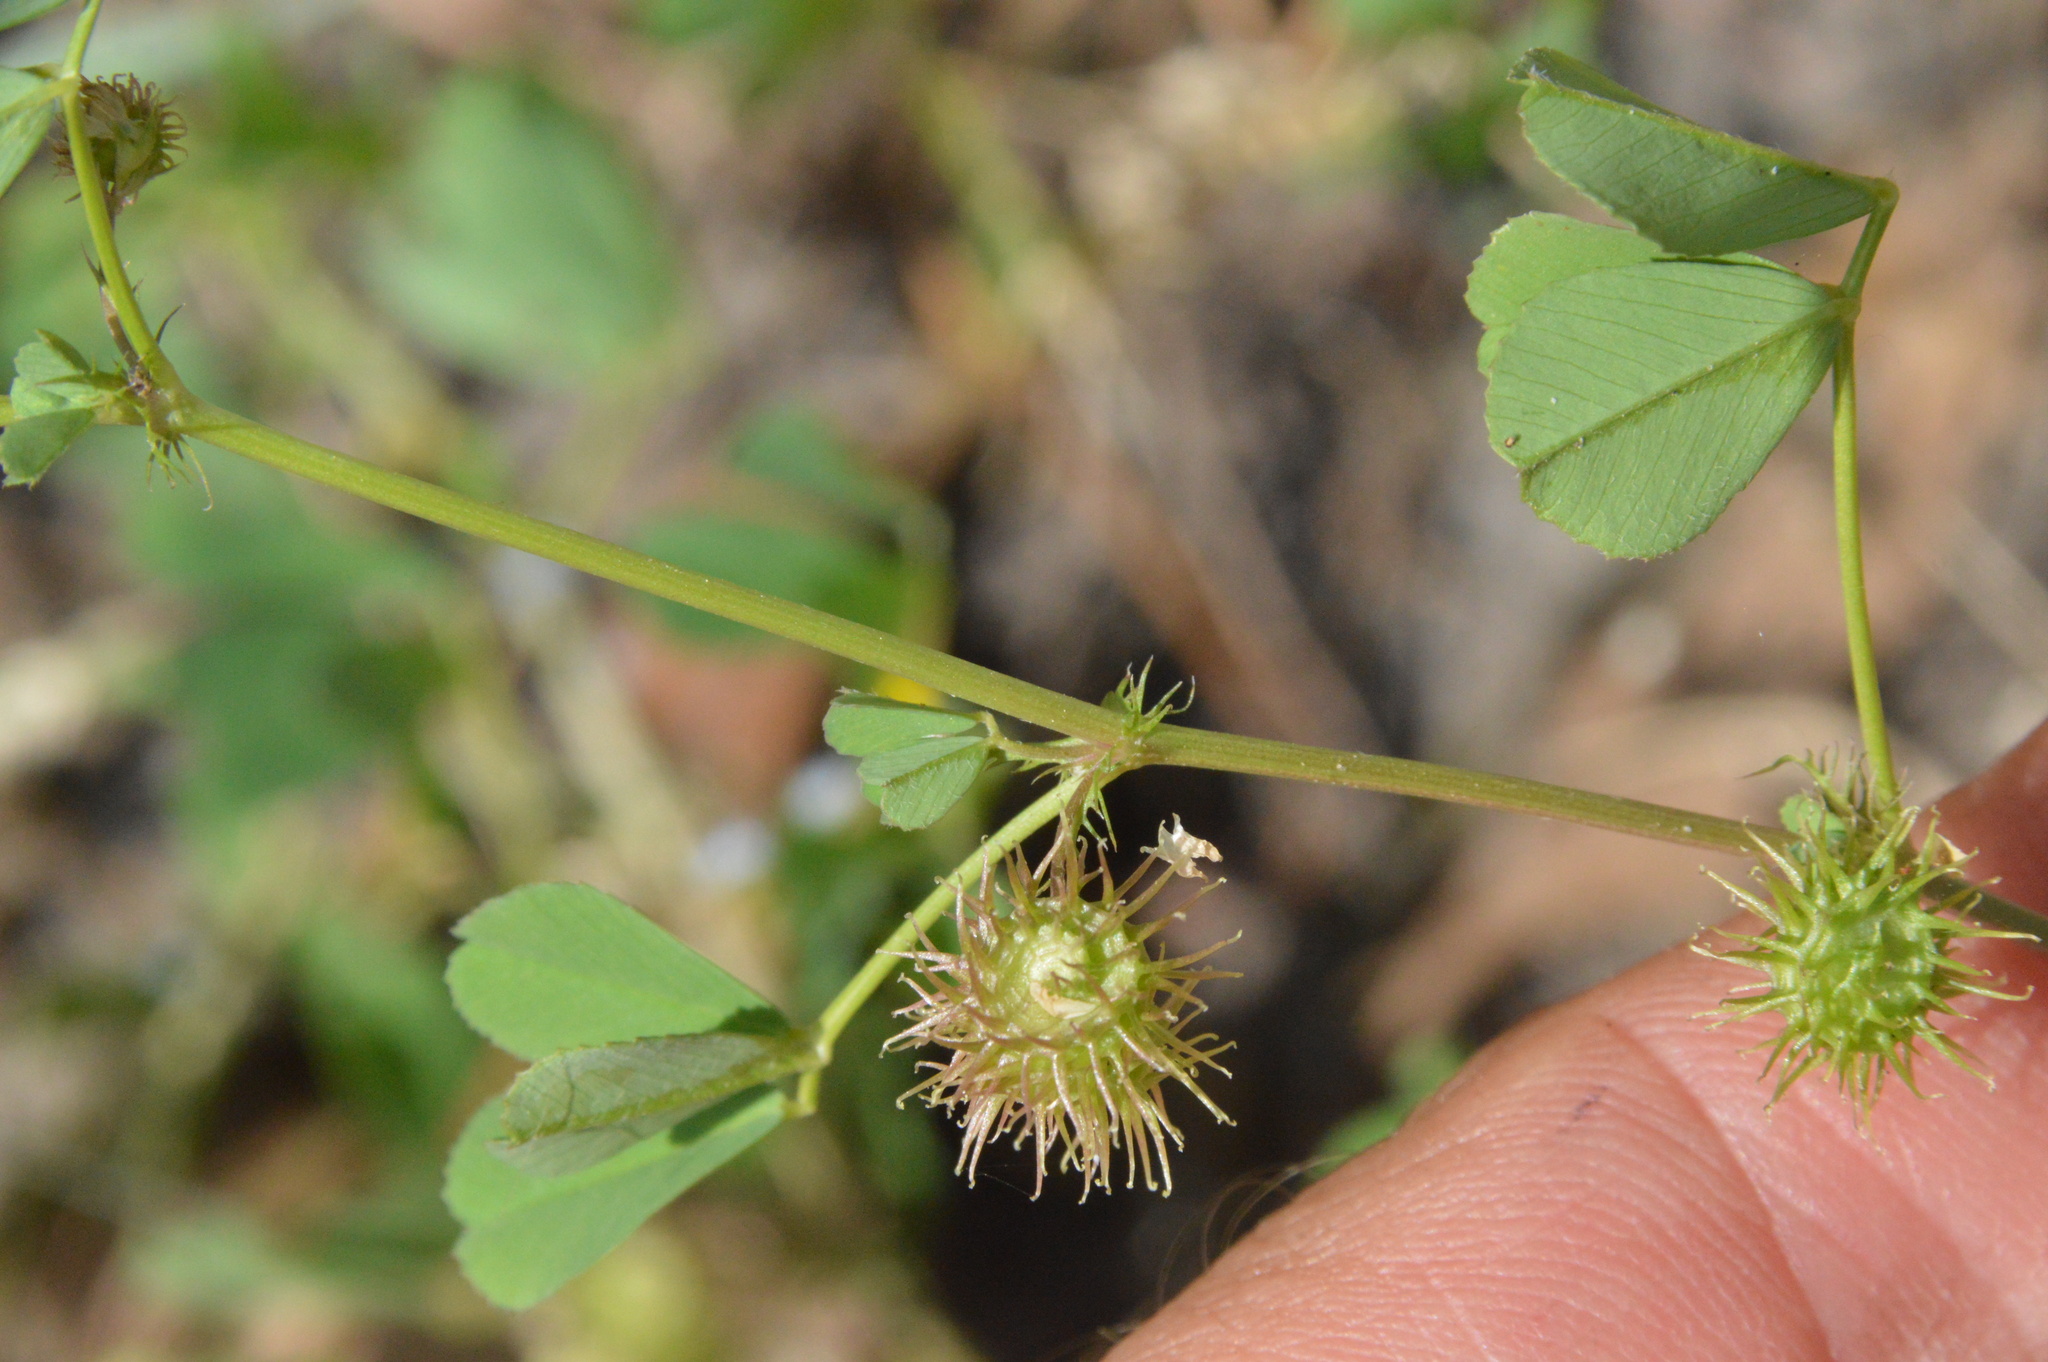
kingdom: Plantae
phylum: Tracheophyta
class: Magnoliopsida
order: Fabales
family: Fabaceae
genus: Medicago
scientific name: Medicago polymorpha
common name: Burclover
